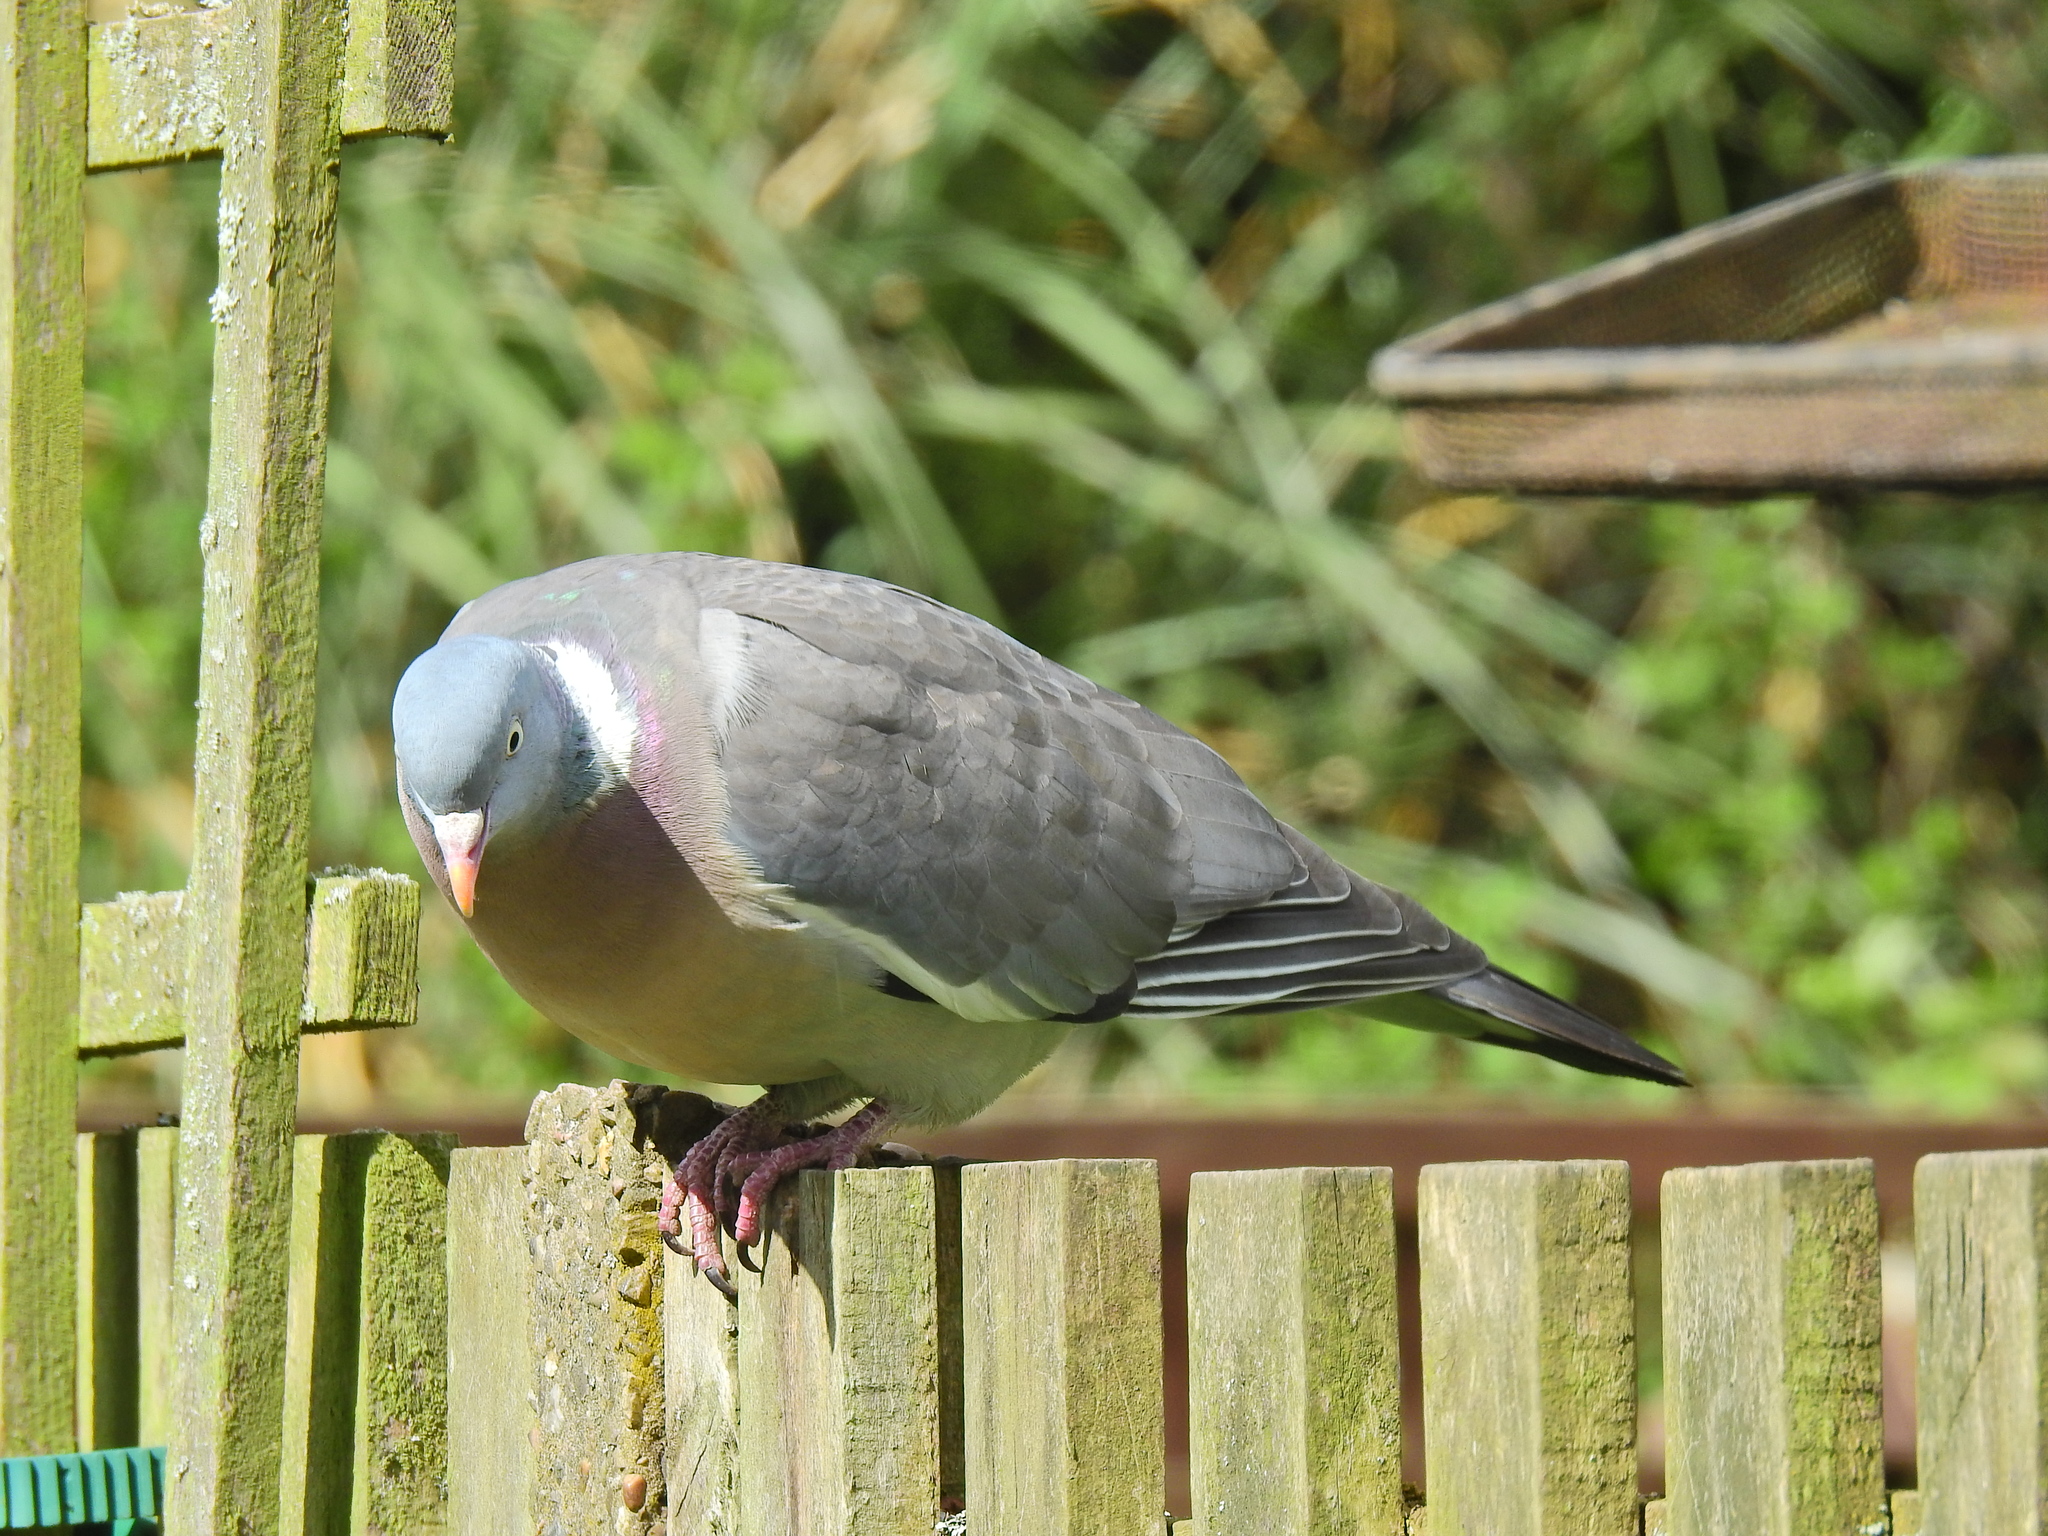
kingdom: Animalia
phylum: Chordata
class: Aves
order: Columbiformes
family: Columbidae
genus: Columba
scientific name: Columba palumbus
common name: Common wood pigeon
